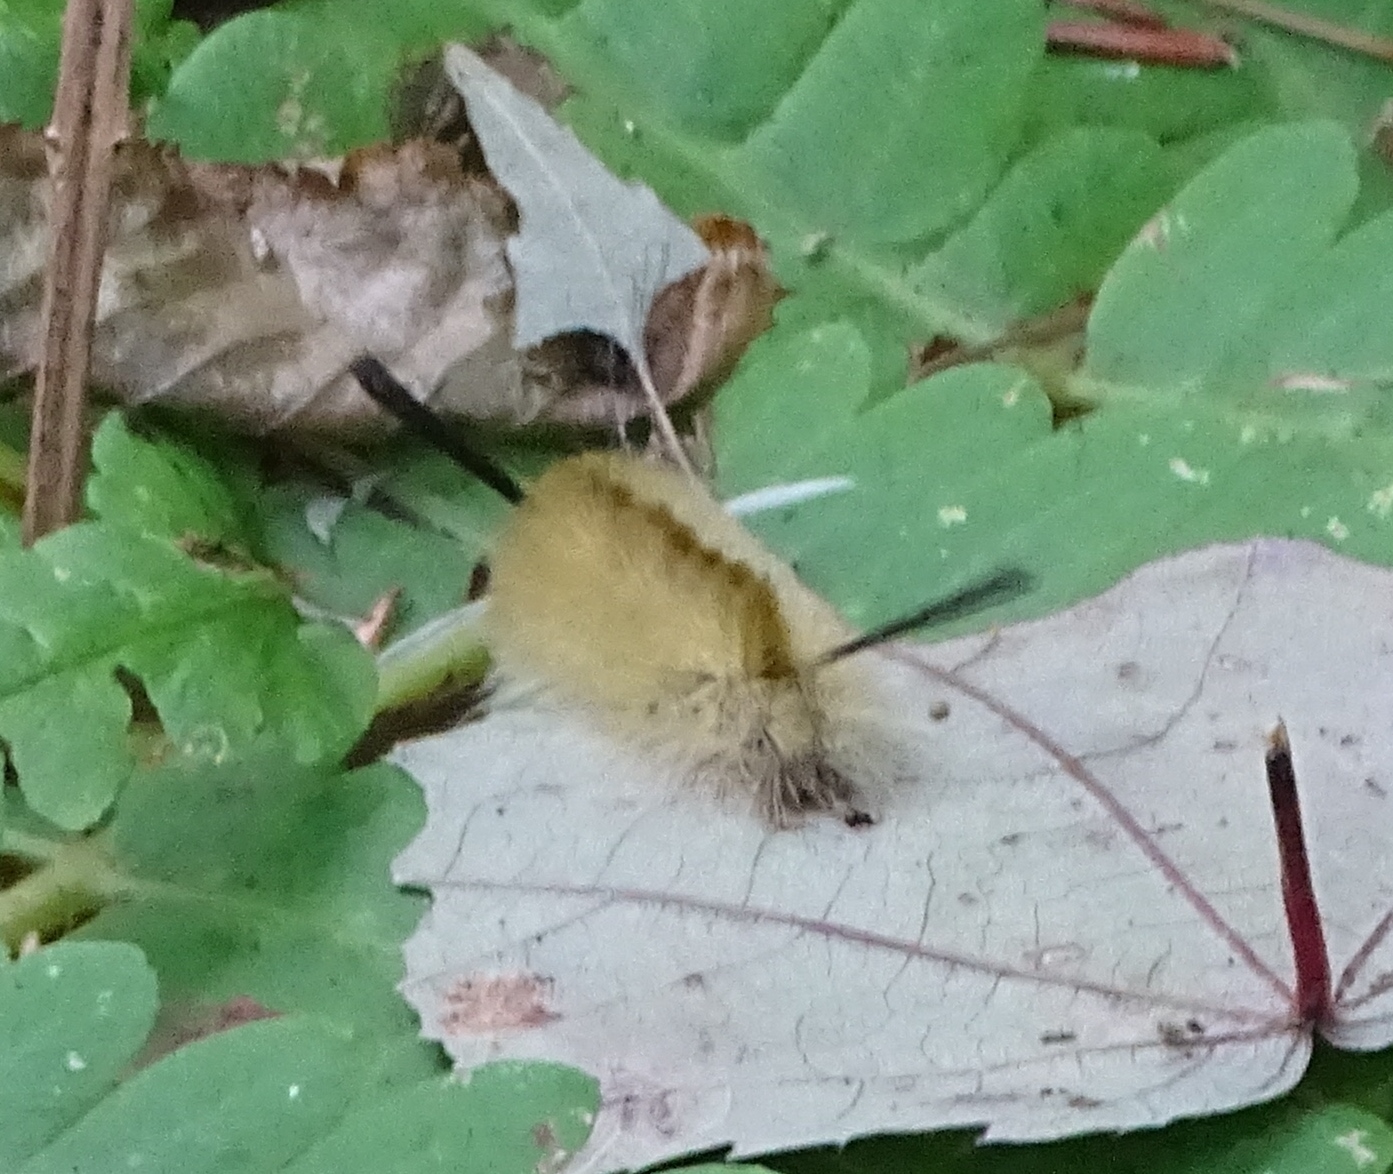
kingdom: Animalia
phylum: Arthropoda
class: Insecta
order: Lepidoptera
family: Erebidae
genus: Halysidota
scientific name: Halysidota tessellaris
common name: Banded tussock moth
